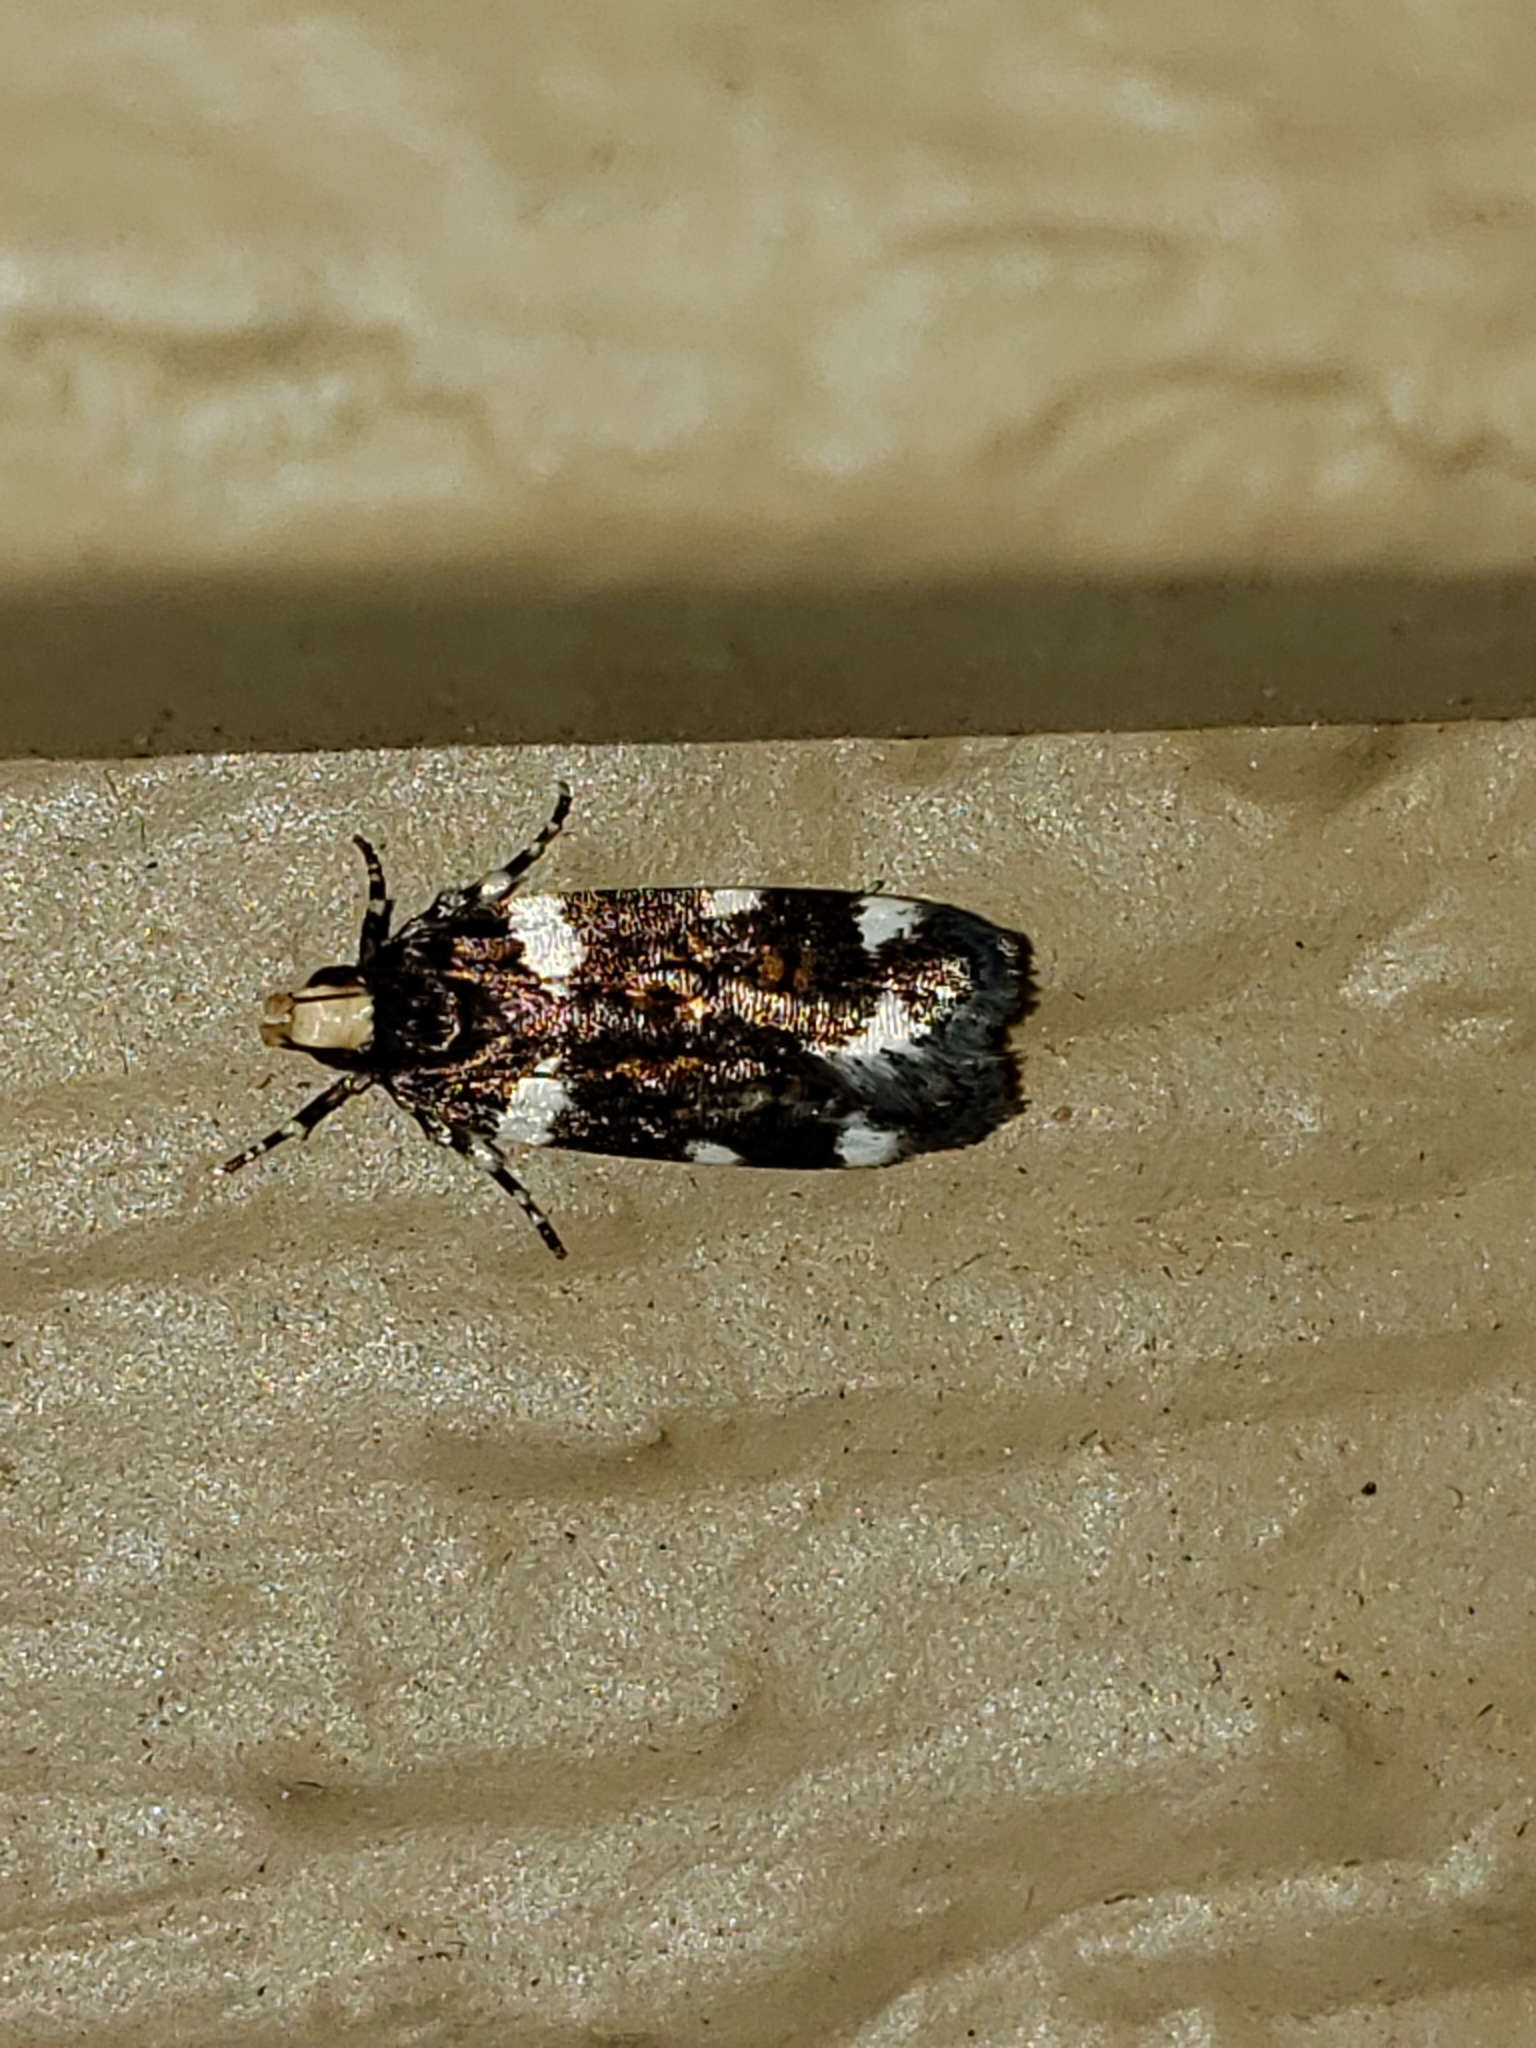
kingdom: Animalia
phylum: Arthropoda
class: Insecta
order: Lepidoptera
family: Gelechiidae
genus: Fascista
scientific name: Fascista cercerisella
